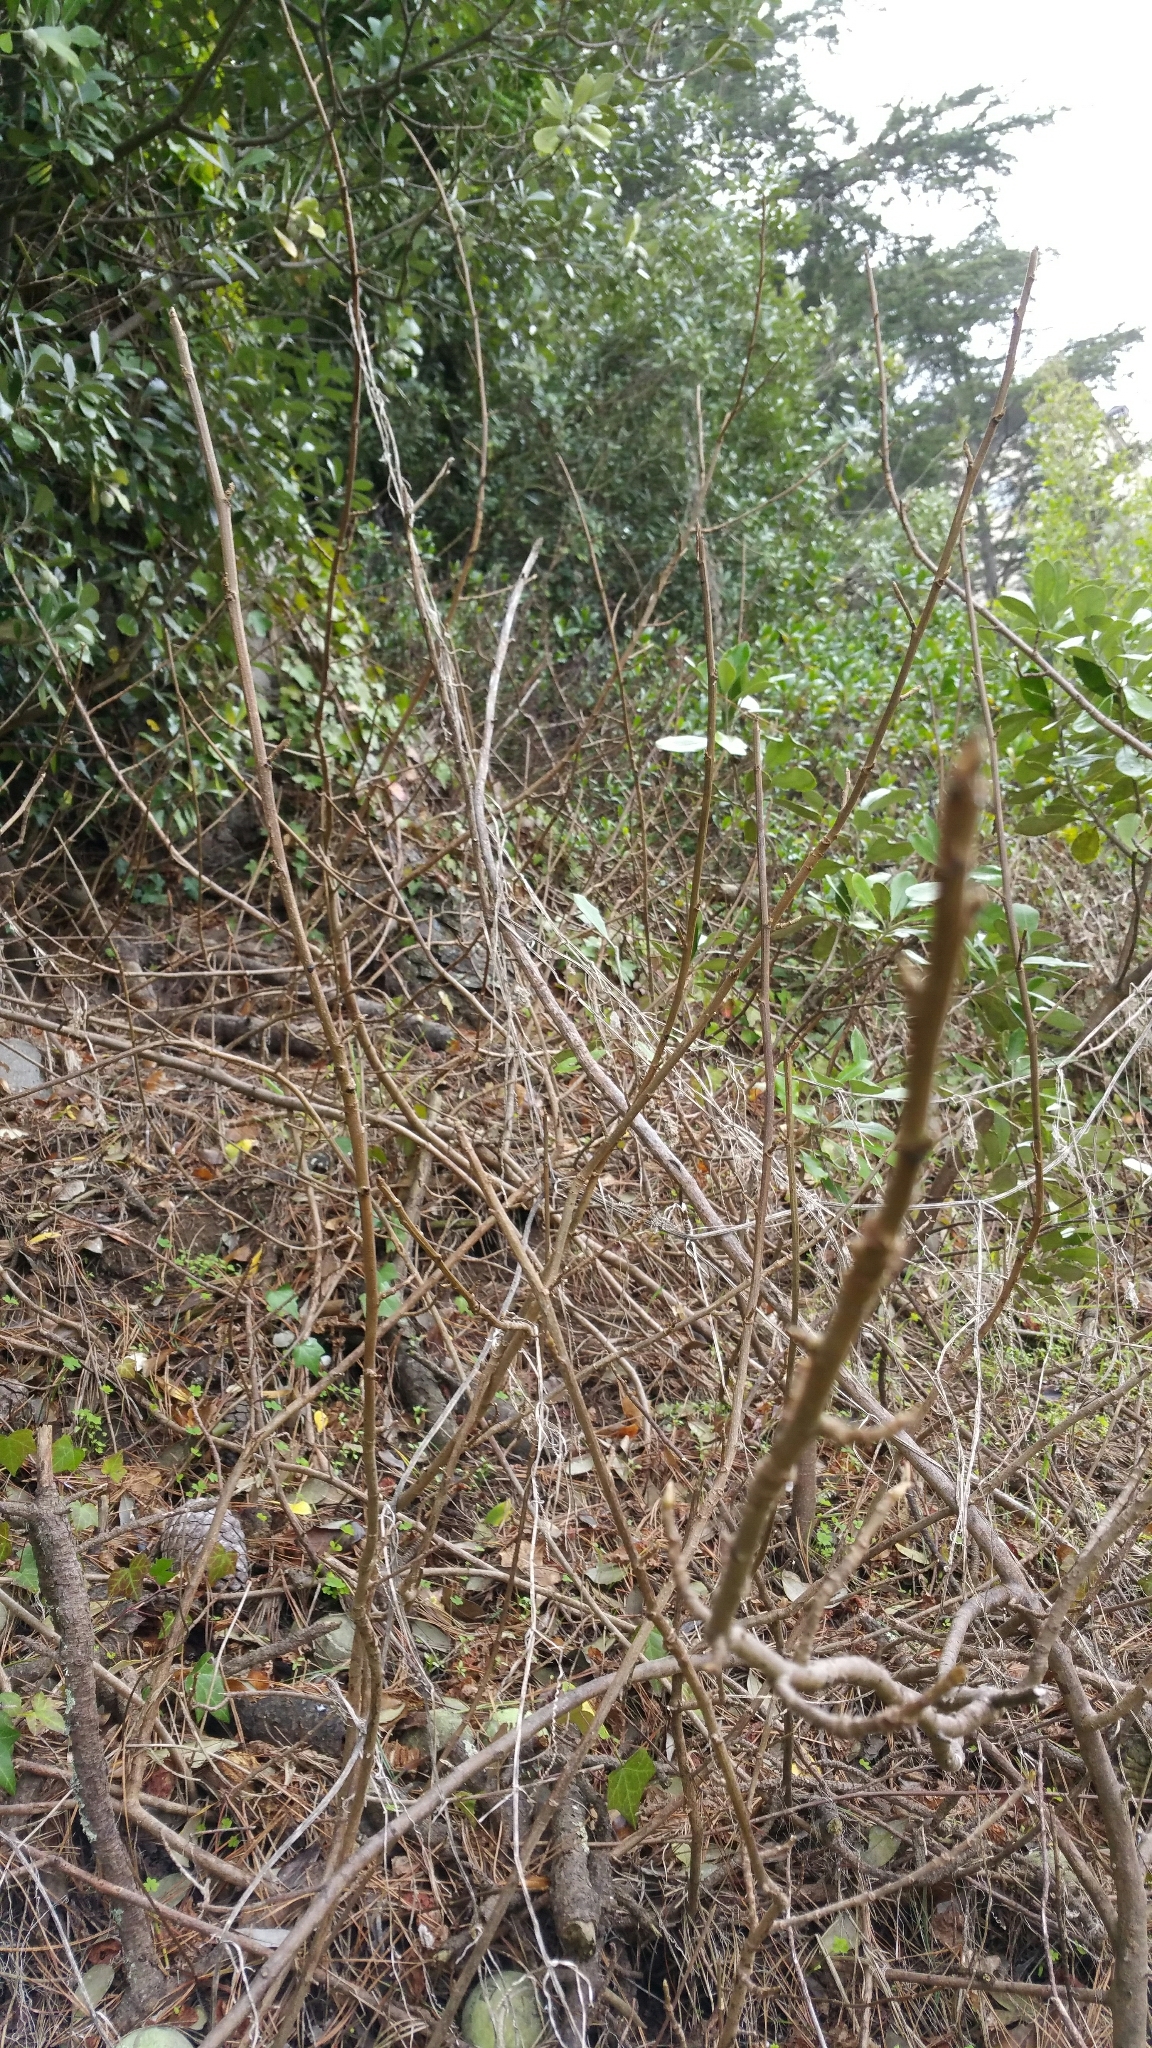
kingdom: Plantae
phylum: Tracheophyta
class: Magnoliopsida
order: Sapindales
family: Anacardiaceae
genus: Toxicodendron
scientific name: Toxicodendron diversilobum
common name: Pacific poison-oak
